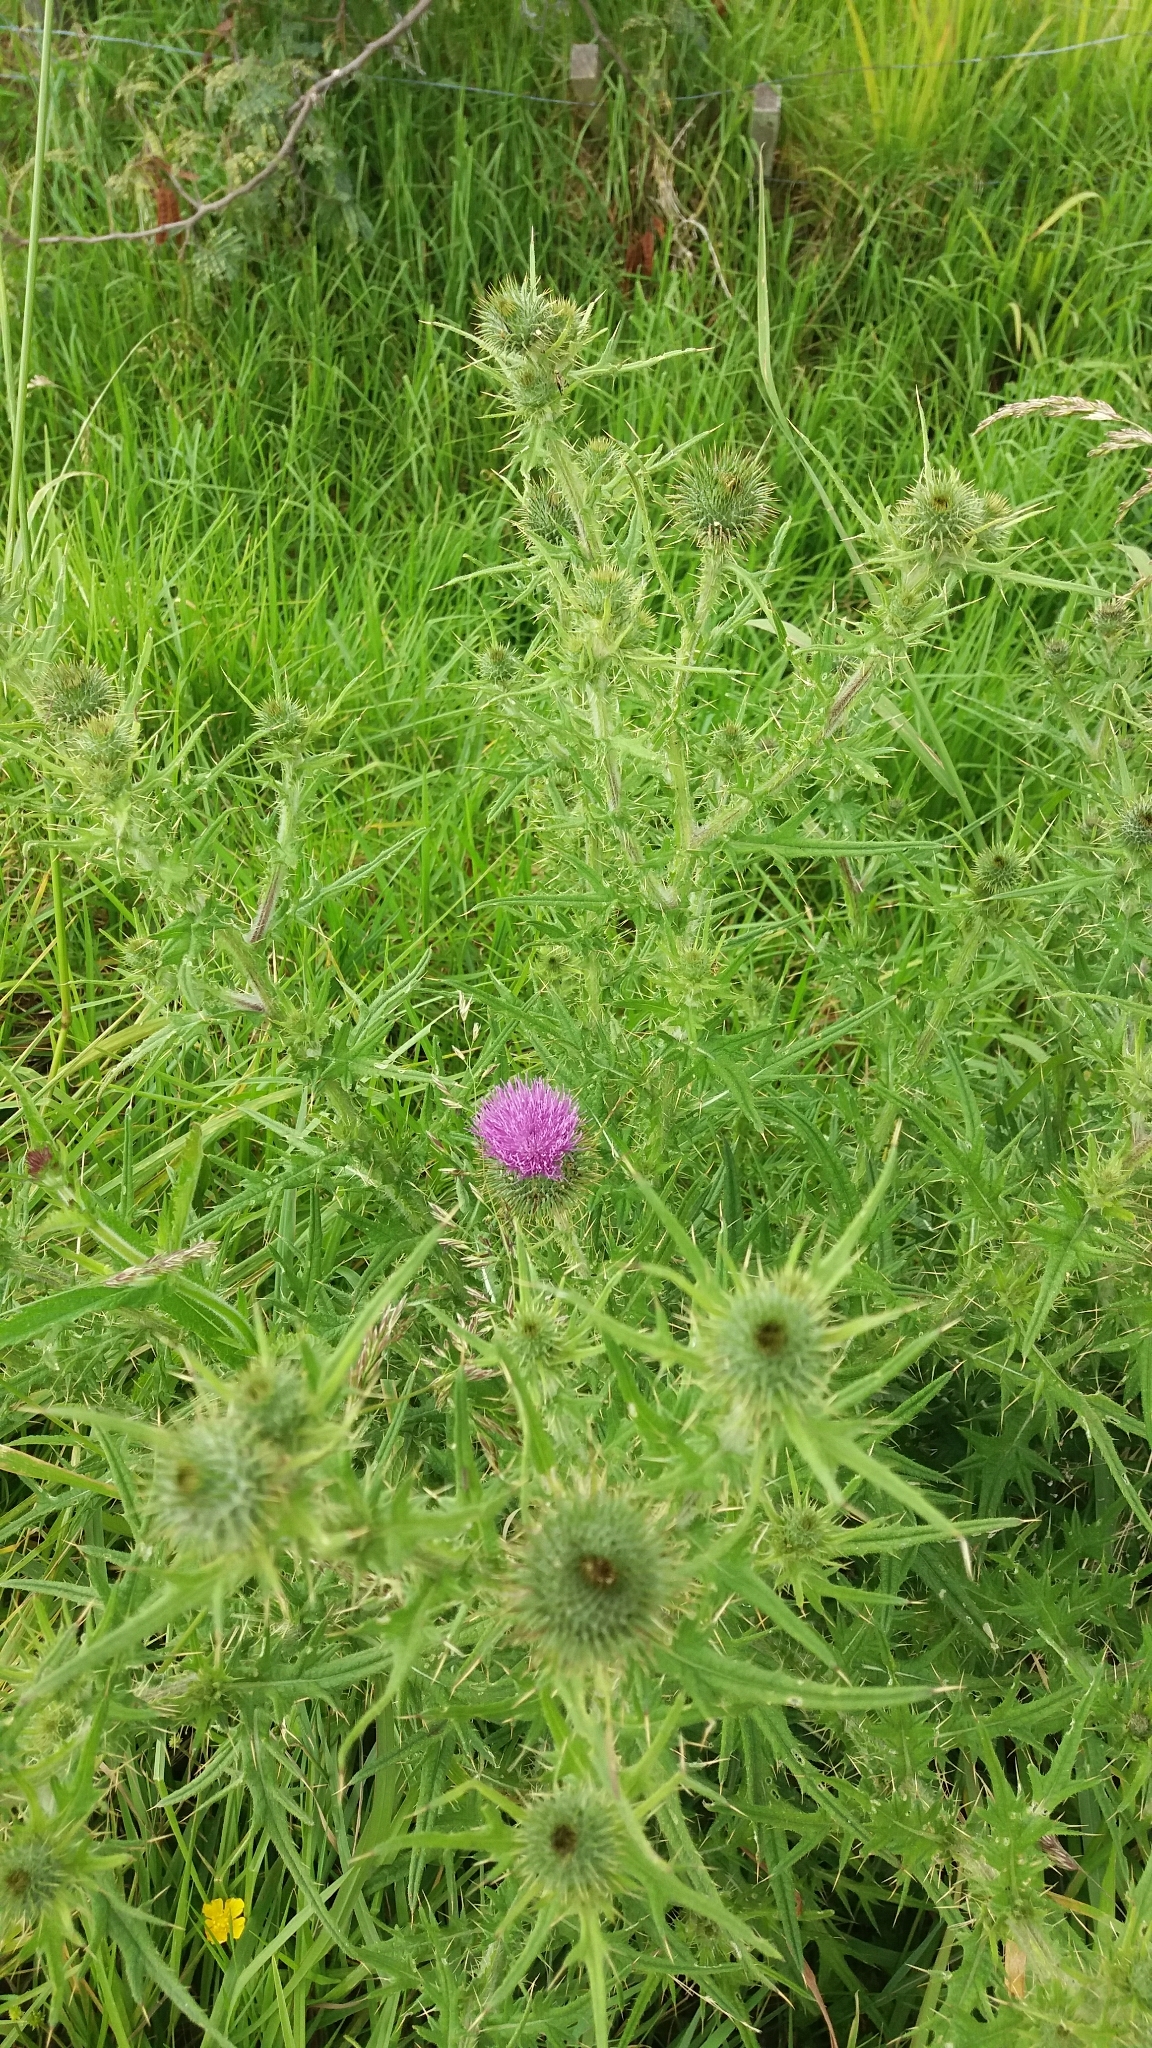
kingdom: Plantae
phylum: Tracheophyta
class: Magnoliopsida
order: Asterales
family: Asteraceae
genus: Cirsium
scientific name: Cirsium vulgare
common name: Bull thistle
